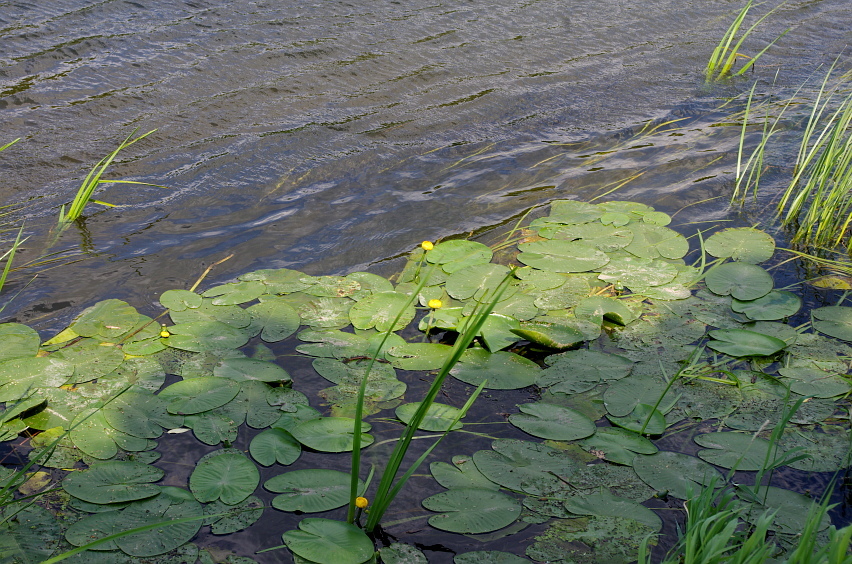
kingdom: Plantae
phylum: Tracheophyta
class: Magnoliopsida
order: Nymphaeales
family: Nymphaeaceae
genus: Nuphar
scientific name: Nuphar lutea
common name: Yellow water-lily
